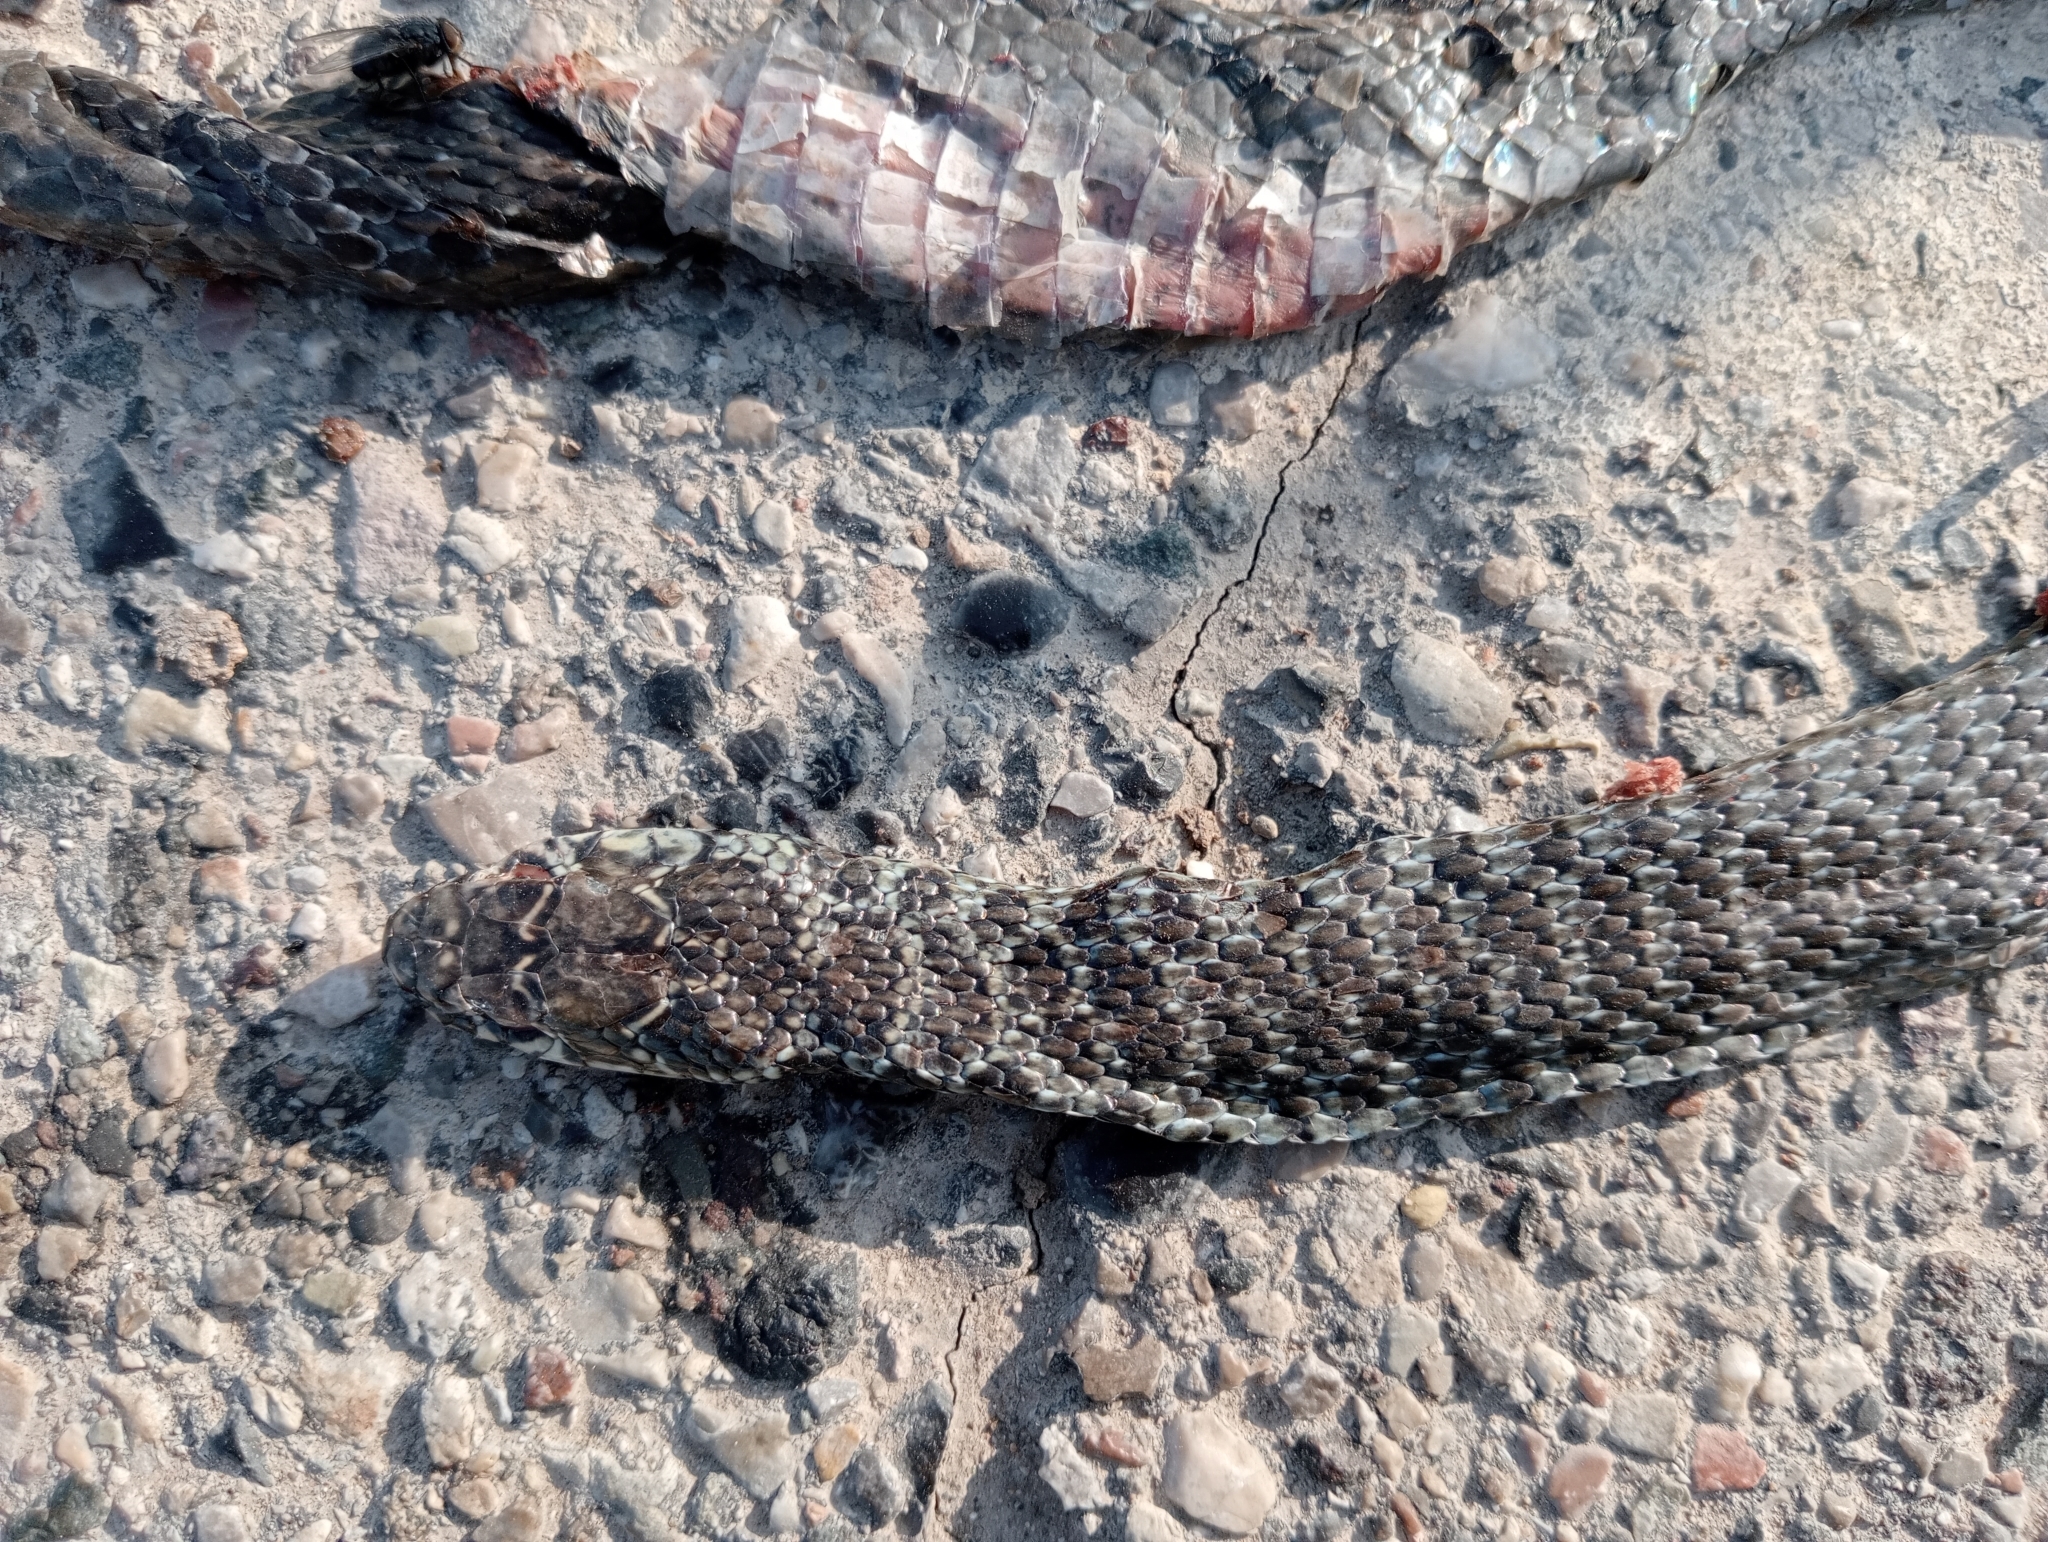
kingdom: Animalia
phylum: Chordata
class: Squamata
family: Colubridae
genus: Hierophis
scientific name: Hierophis viridiflavus
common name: Green whip snake
